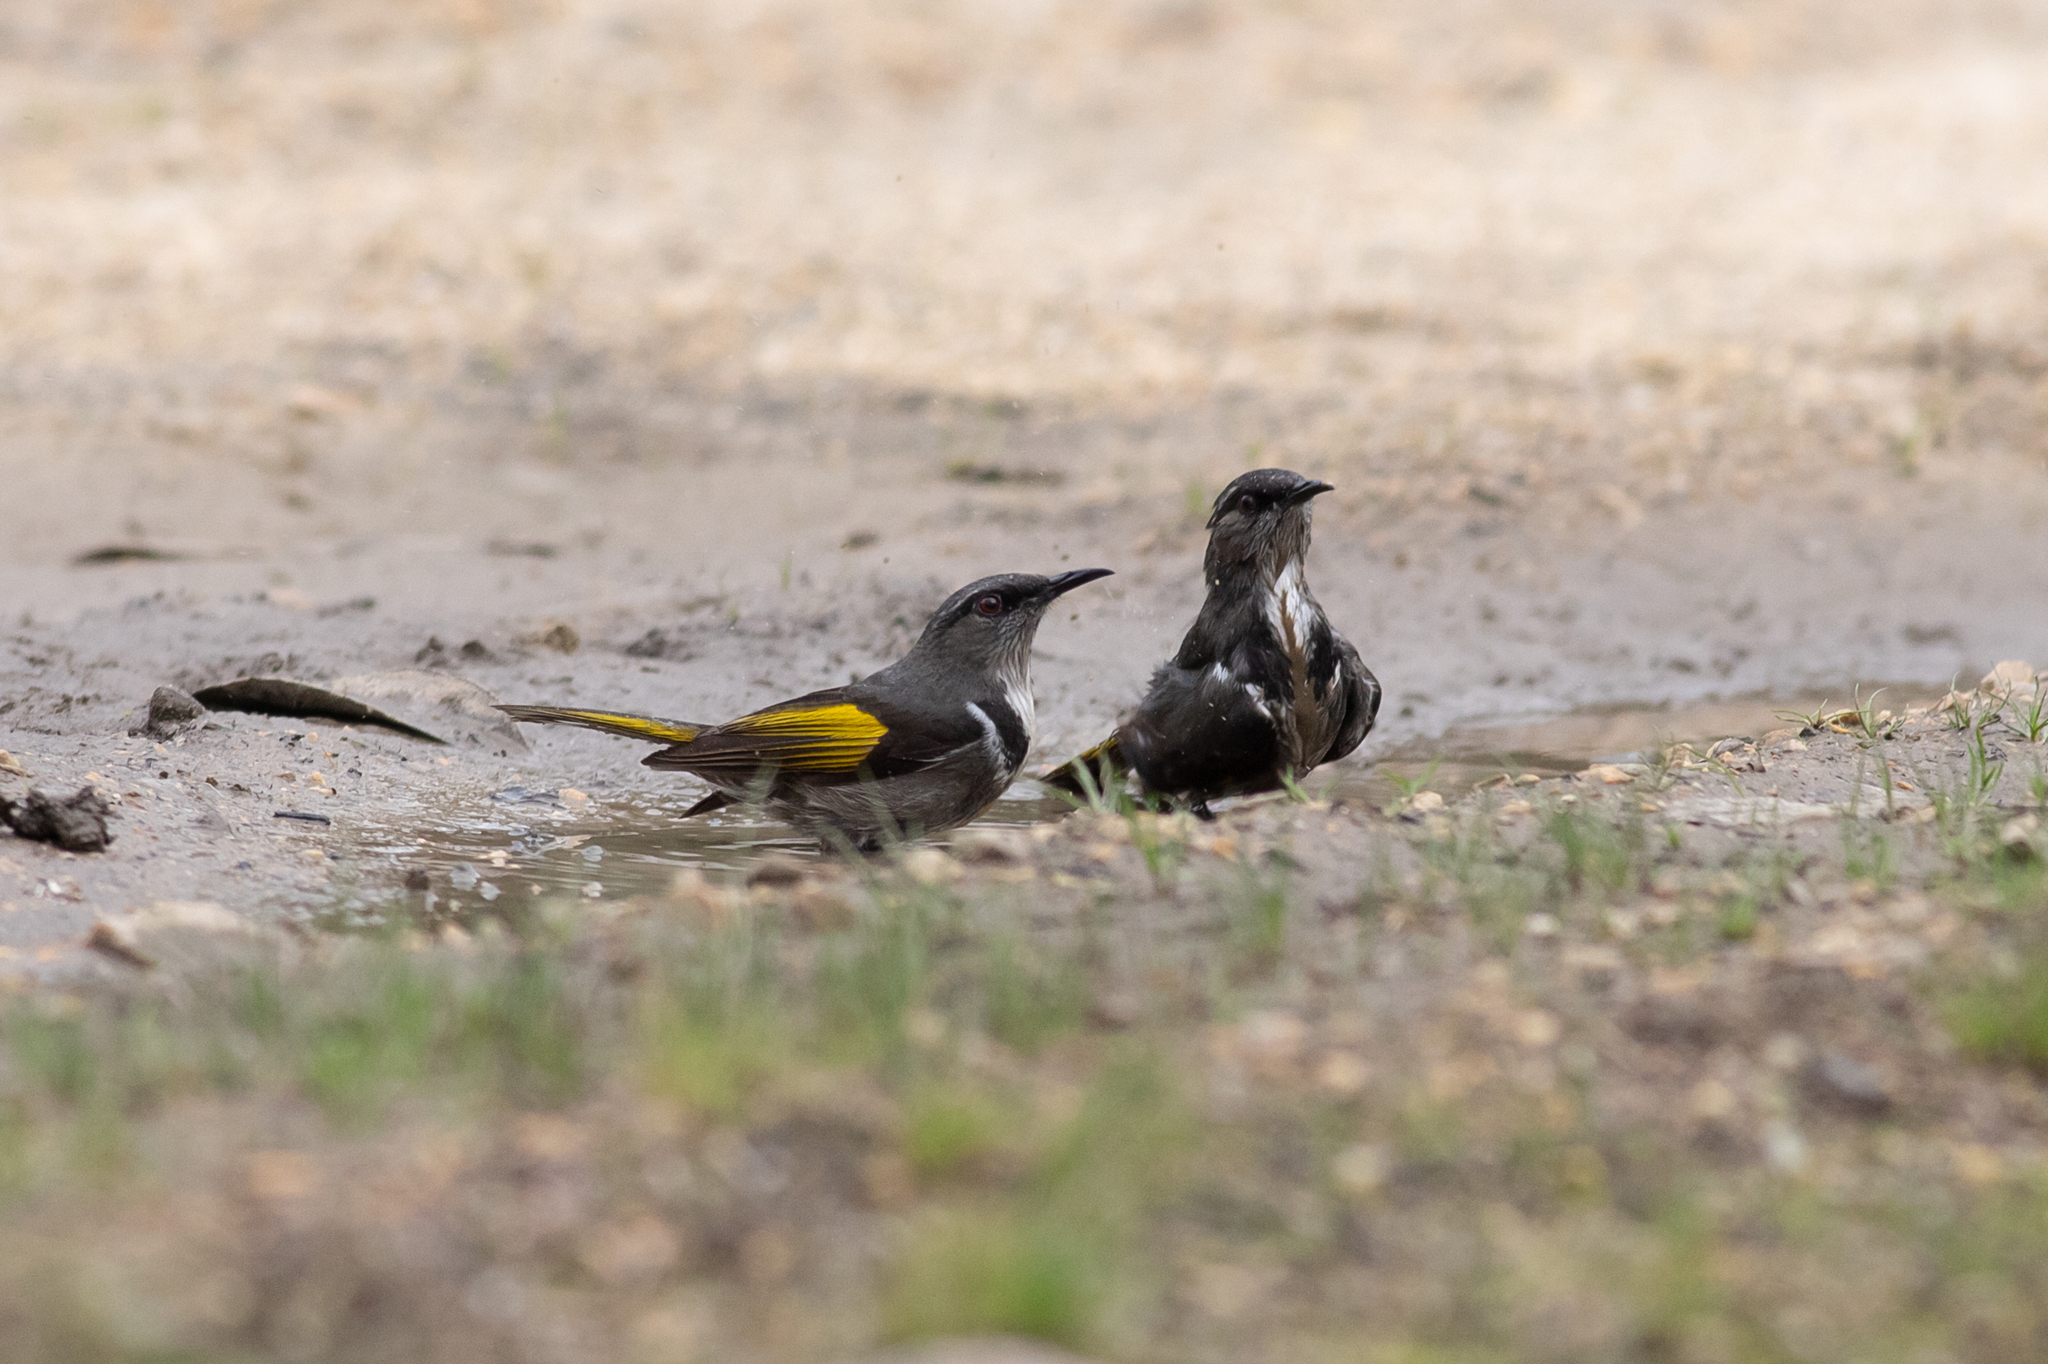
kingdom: Animalia
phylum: Chordata
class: Aves
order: Passeriformes
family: Meliphagidae
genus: Phylidonyris
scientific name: Phylidonyris pyrrhopterus
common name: Crescent honeyeater
